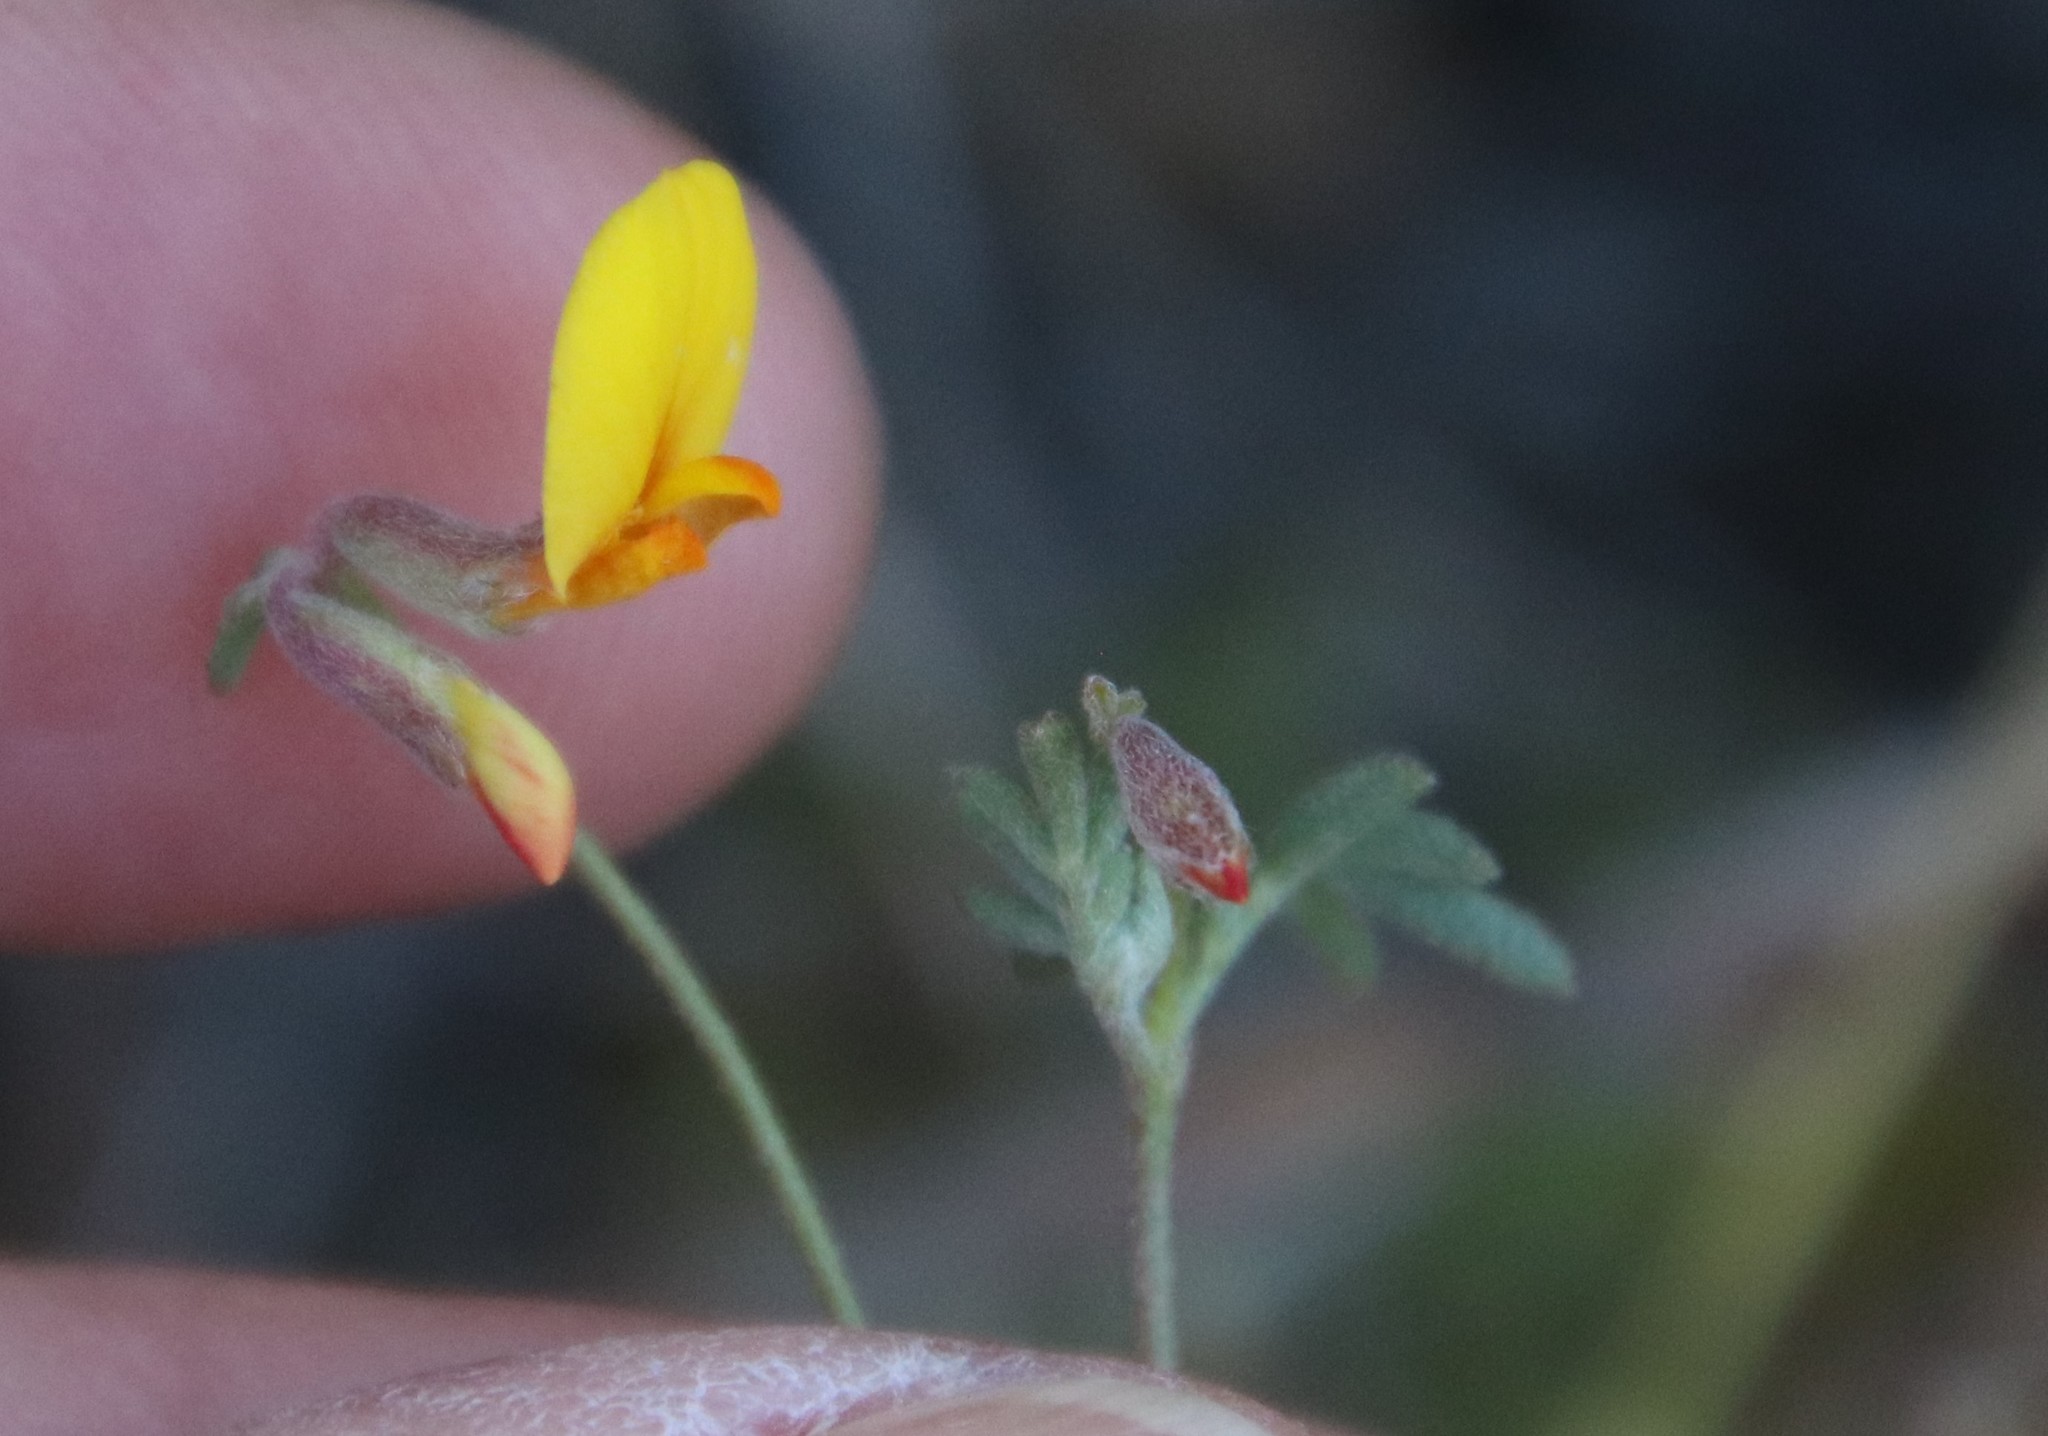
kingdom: Plantae
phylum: Tracheophyta
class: Magnoliopsida
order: Fabales
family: Fabaceae
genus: Acmispon
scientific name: Acmispon strigosus
